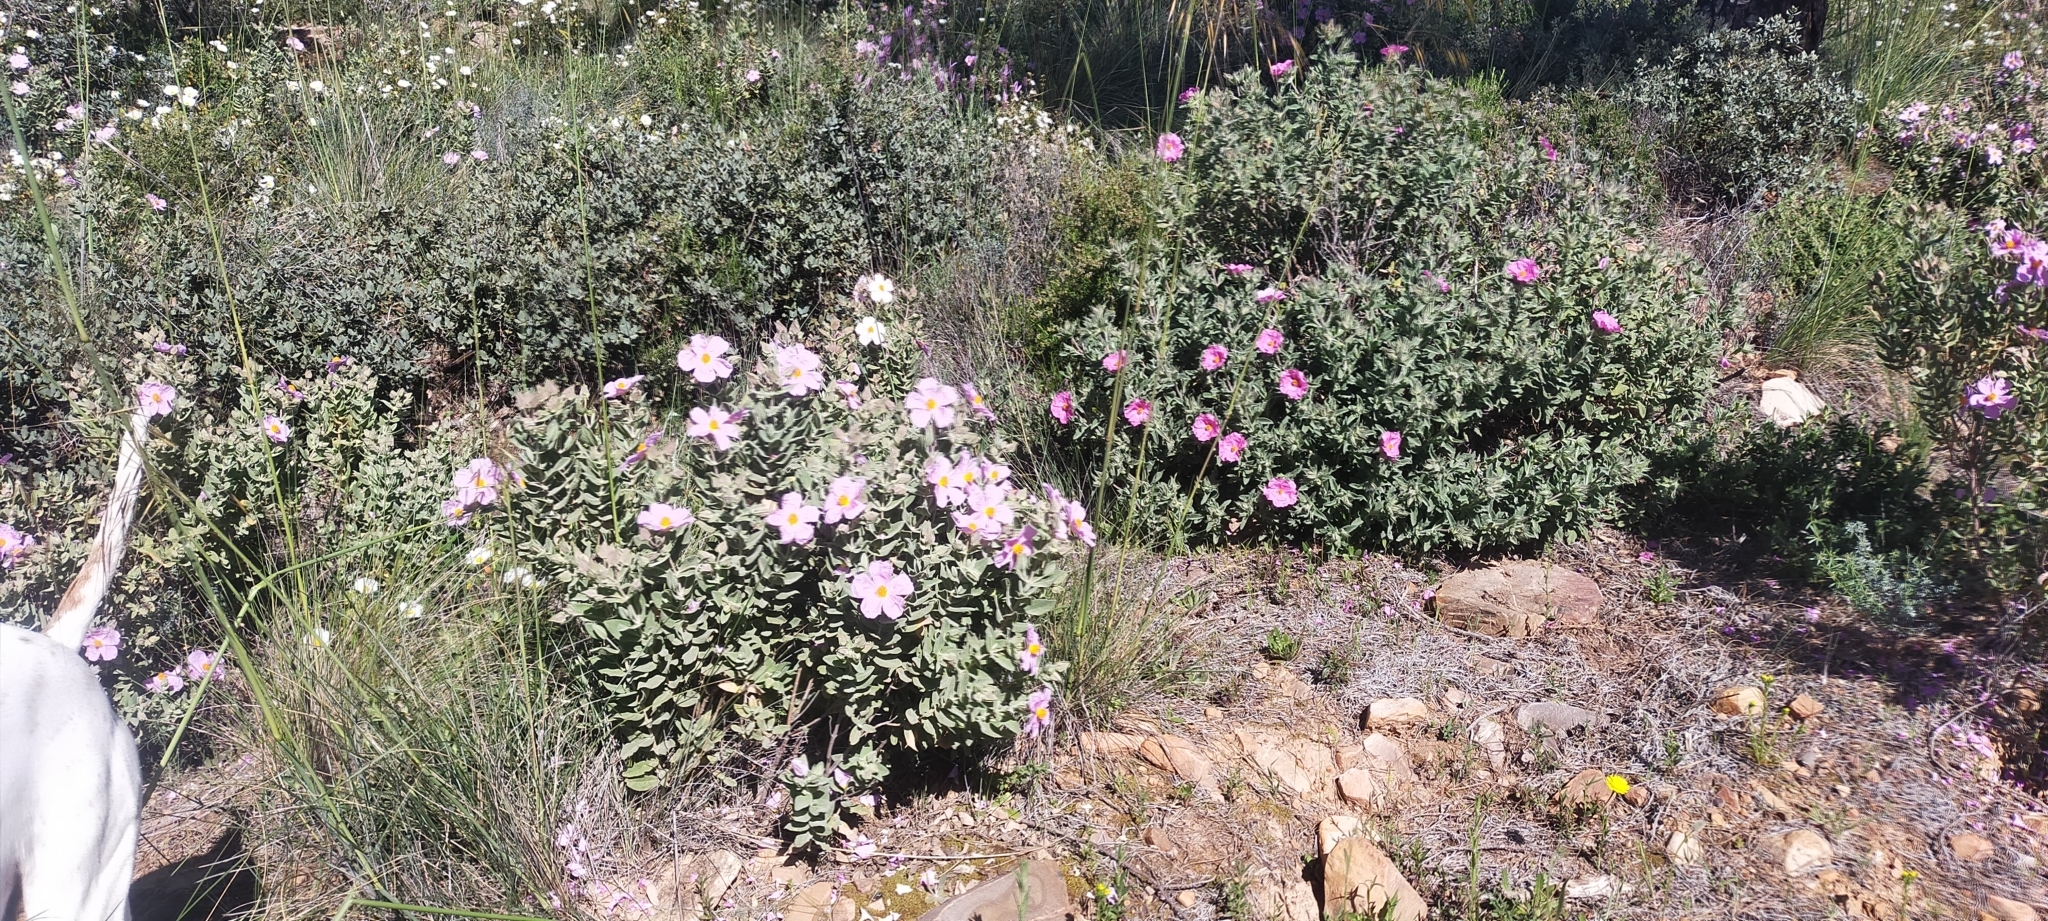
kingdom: Plantae
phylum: Tracheophyta
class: Magnoliopsida
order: Malvales
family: Cistaceae
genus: Cistus
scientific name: Cistus albidus
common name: White-leaf rock-rose
